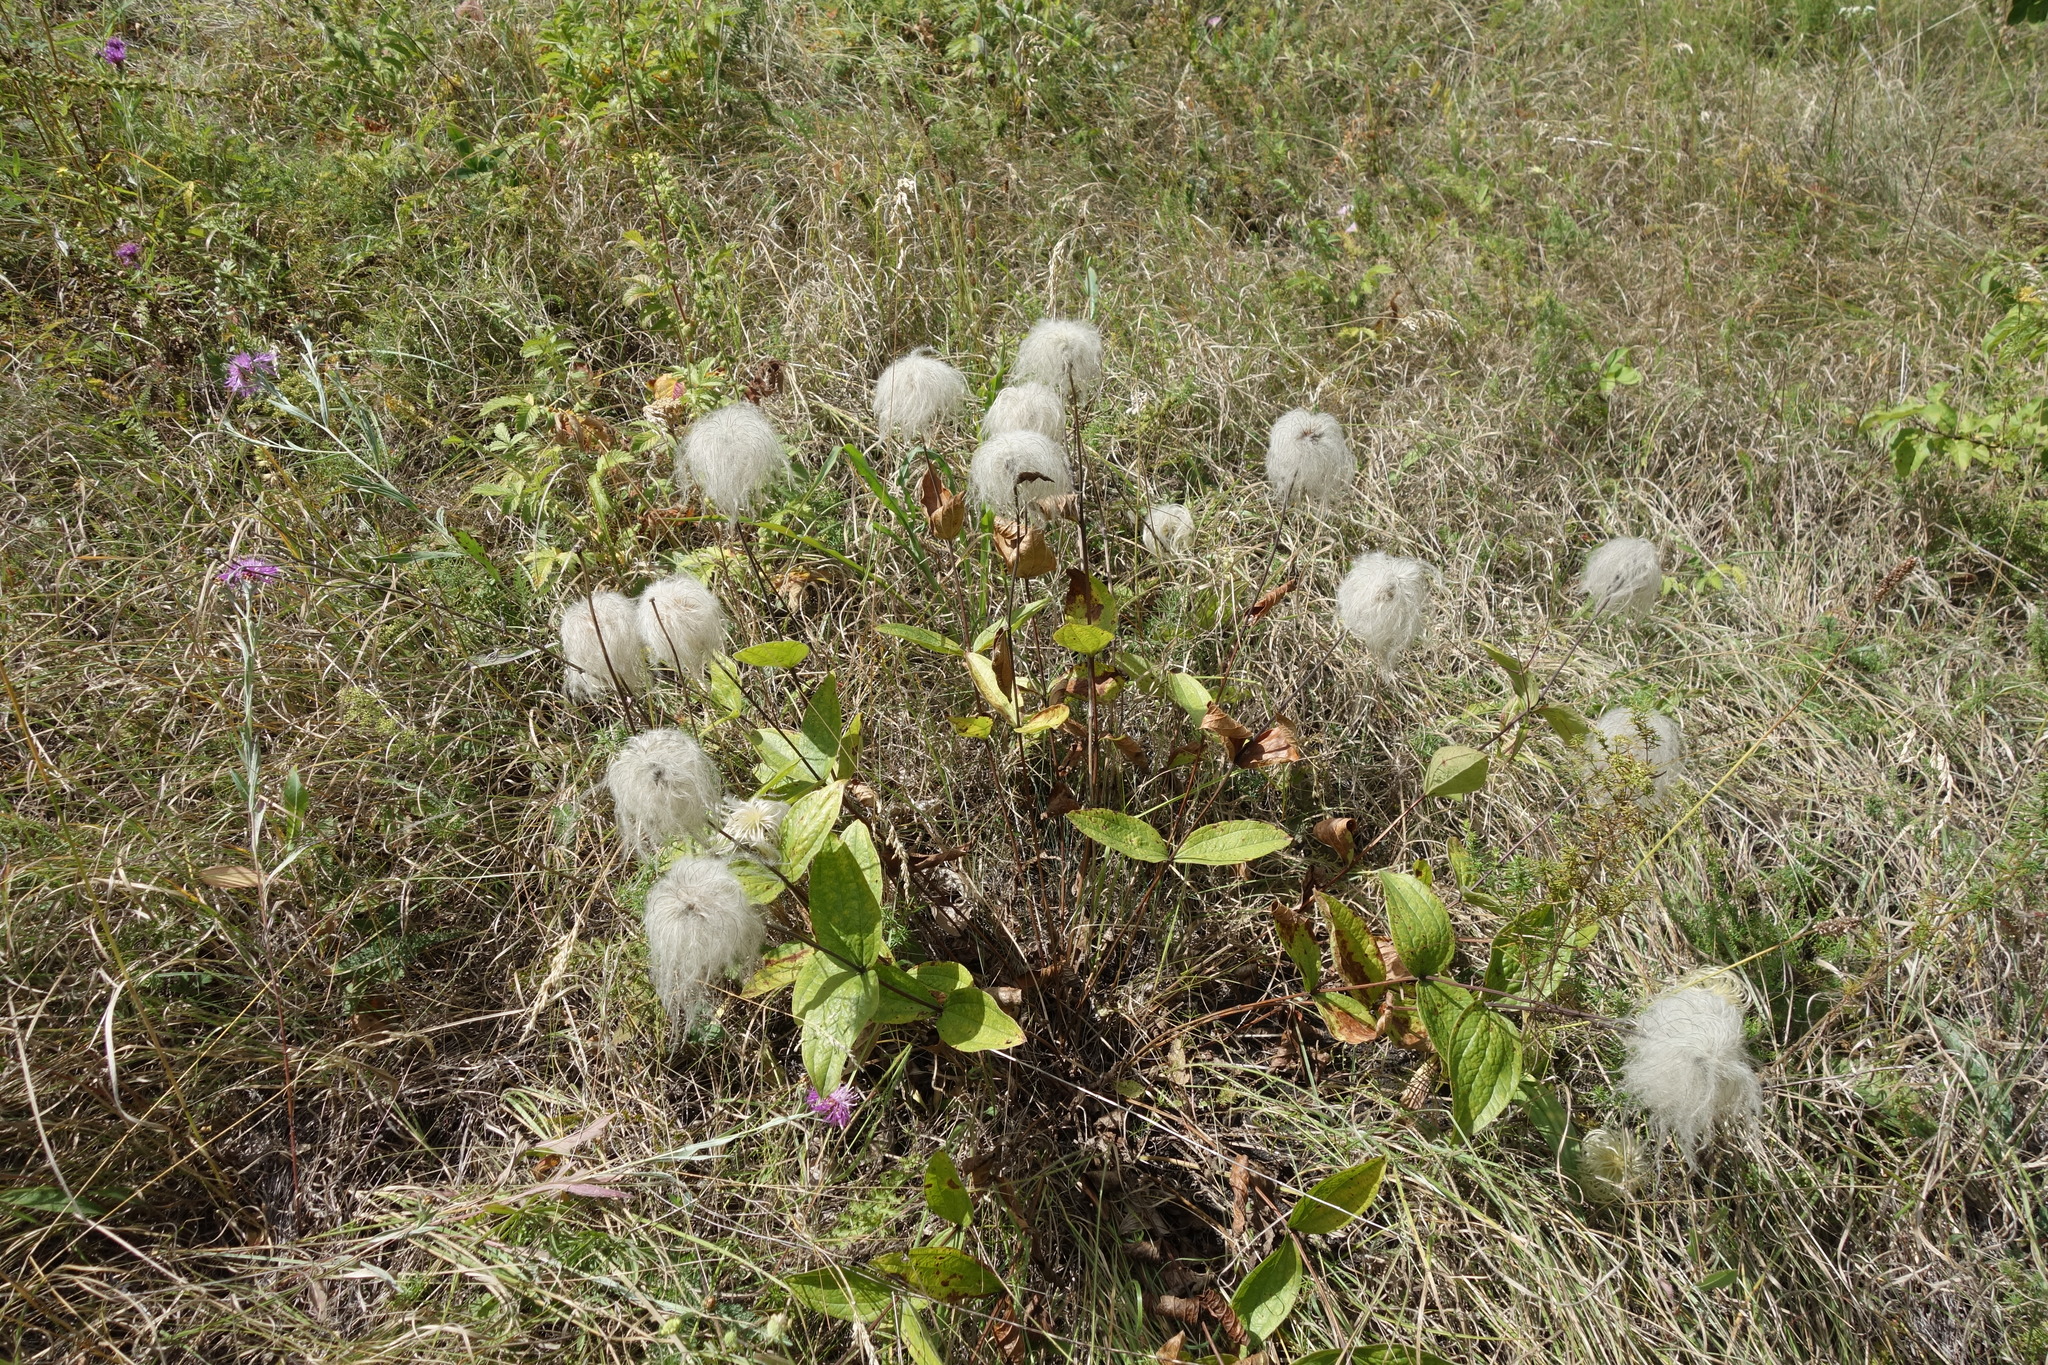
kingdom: Plantae
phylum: Tracheophyta
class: Magnoliopsida
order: Ranunculales
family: Ranunculaceae
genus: Clematis
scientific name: Clematis integrifolia
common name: Solitary clematis
